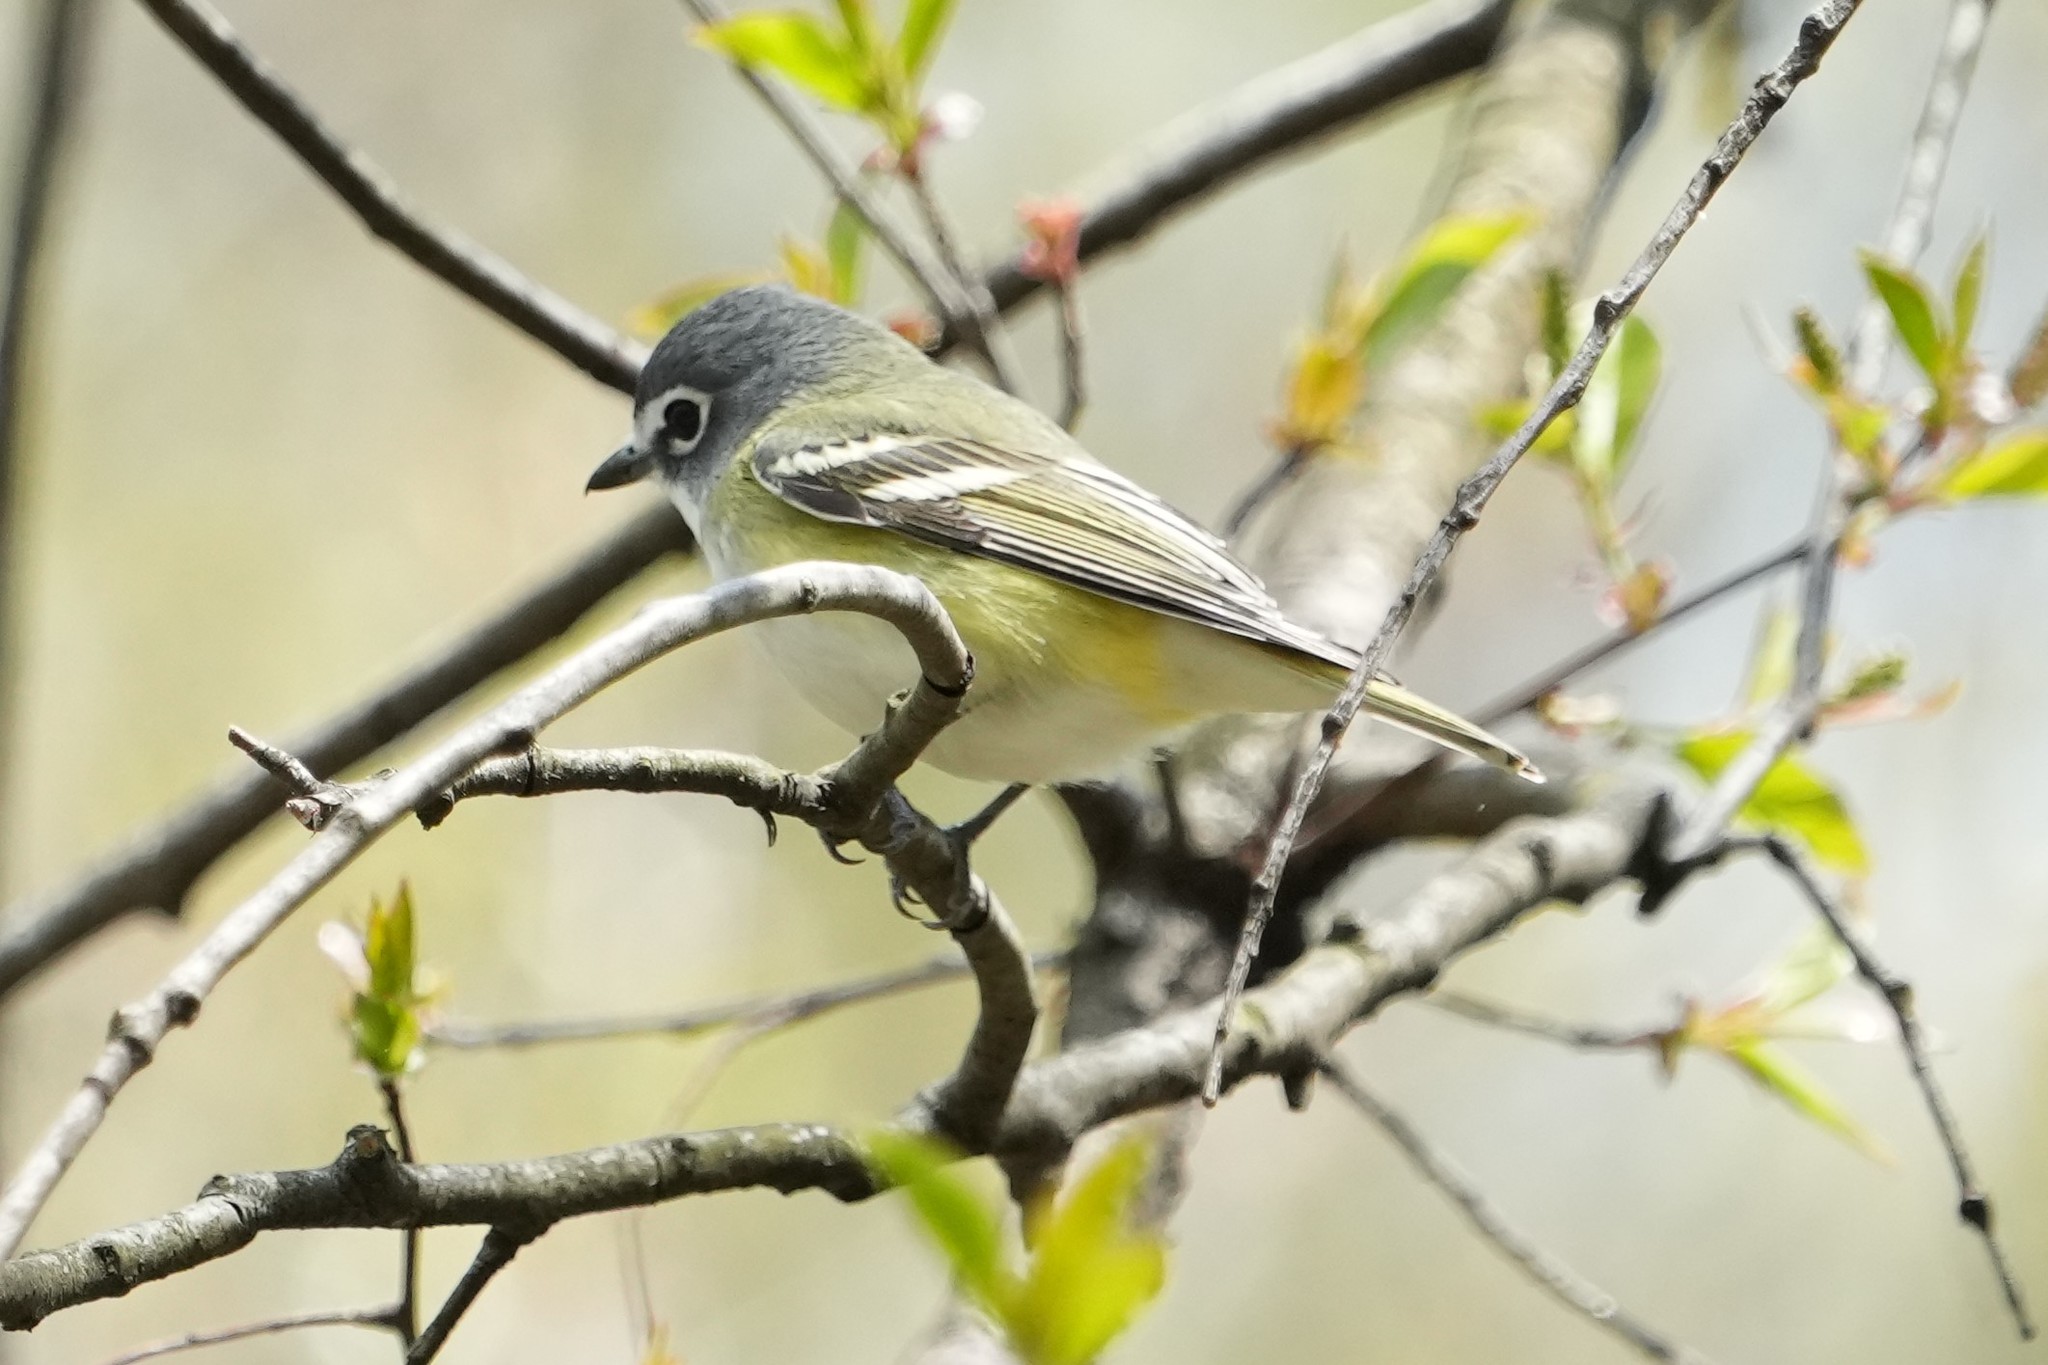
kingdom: Animalia
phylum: Chordata
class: Aves
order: Passeriformes
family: Vireonidae
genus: Vireo
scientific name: Vireo solitarius
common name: Blue-headed vireo
